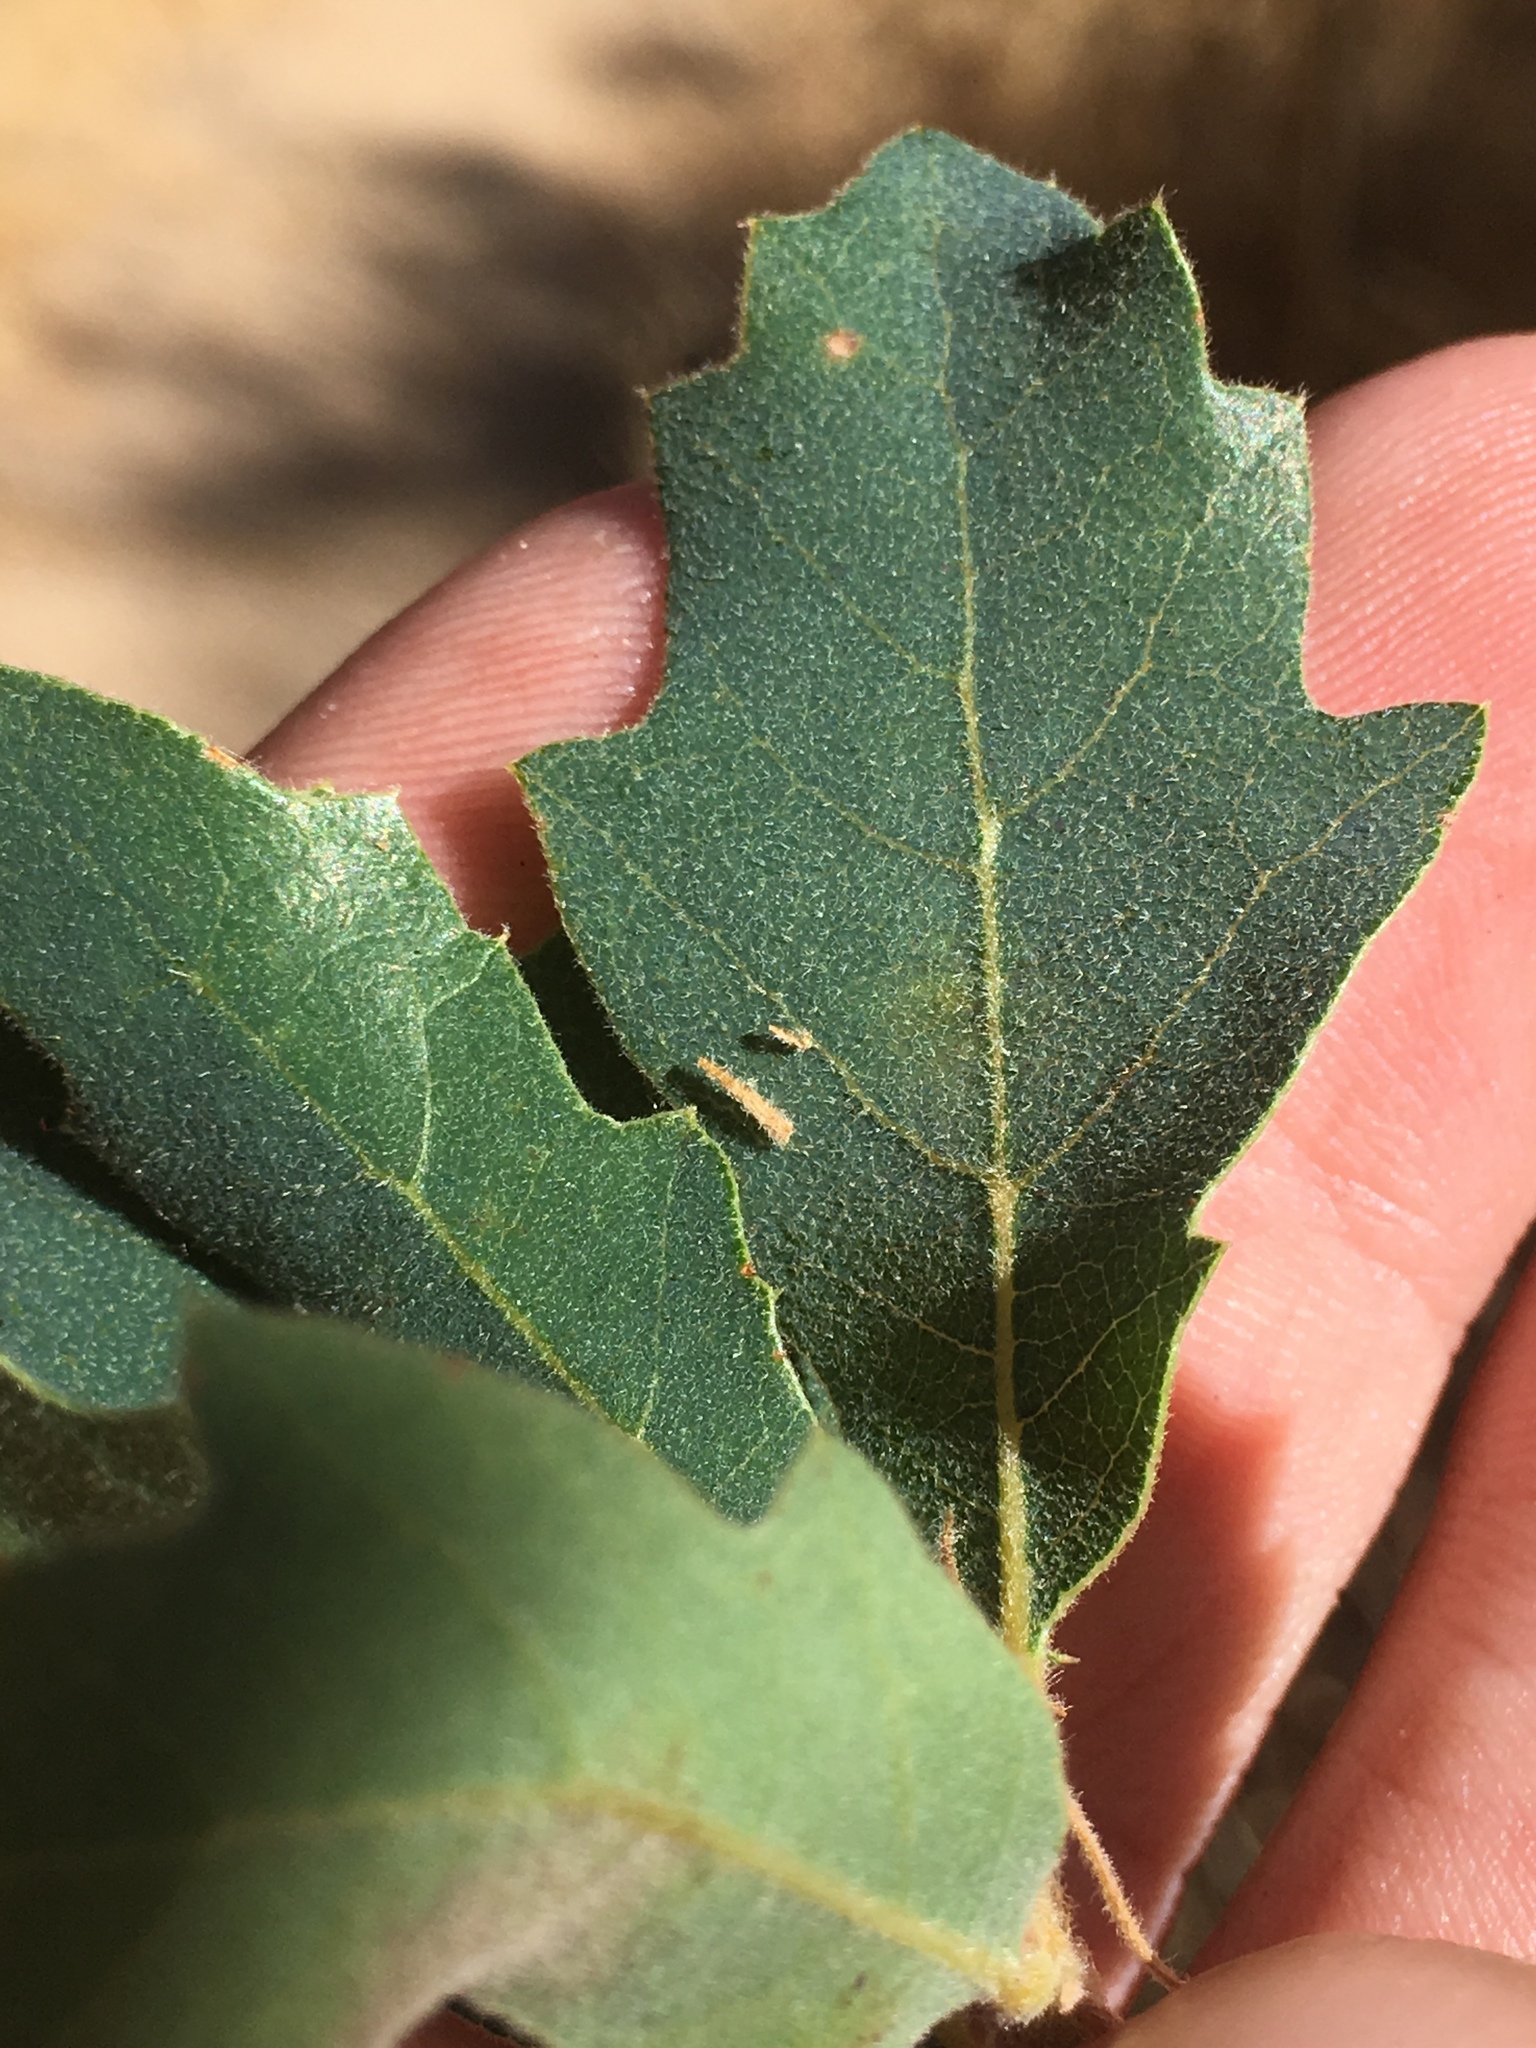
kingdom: Plantae
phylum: Tracheophyta
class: Magnoliopsida
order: Fagales
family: Fagaceae
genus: Quercus
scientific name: Quercus douglasii
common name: Blue oak
